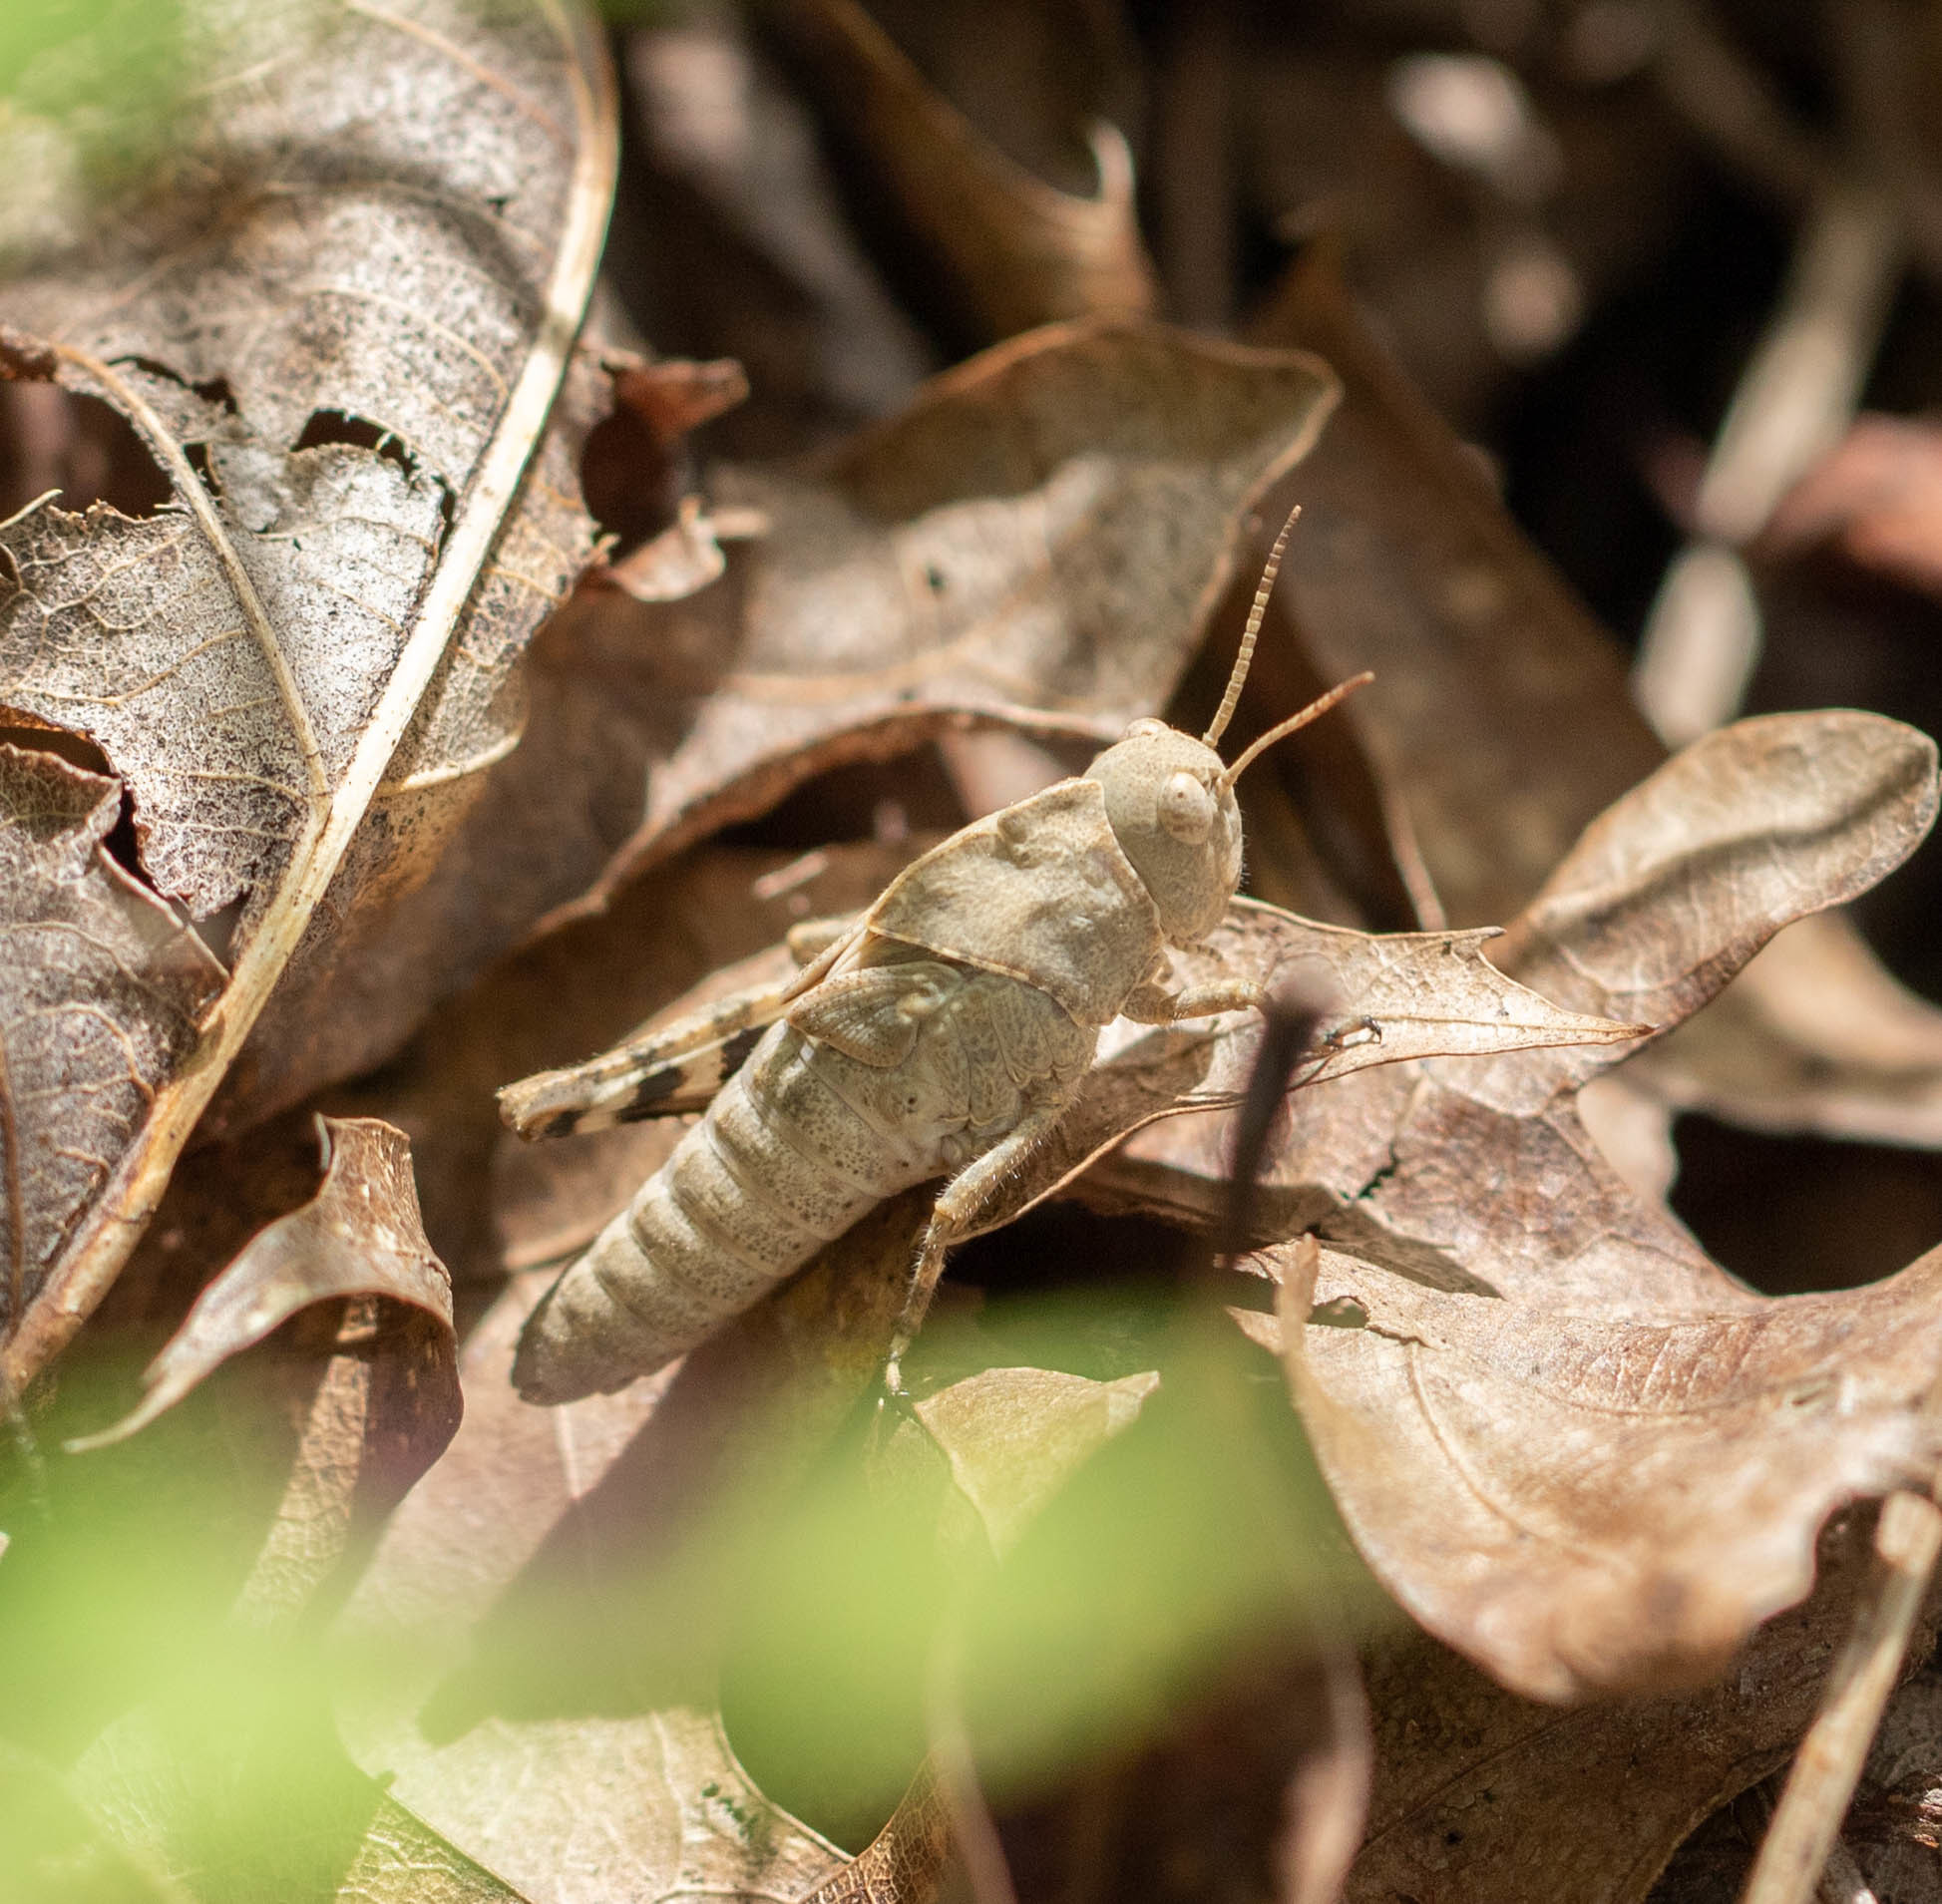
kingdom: Animalia
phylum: Arthropoda
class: Insecta
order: Orthoptera
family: Acrididae
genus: Dissosteira
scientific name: Dissosteira carolina
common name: Carolina grasshopper
